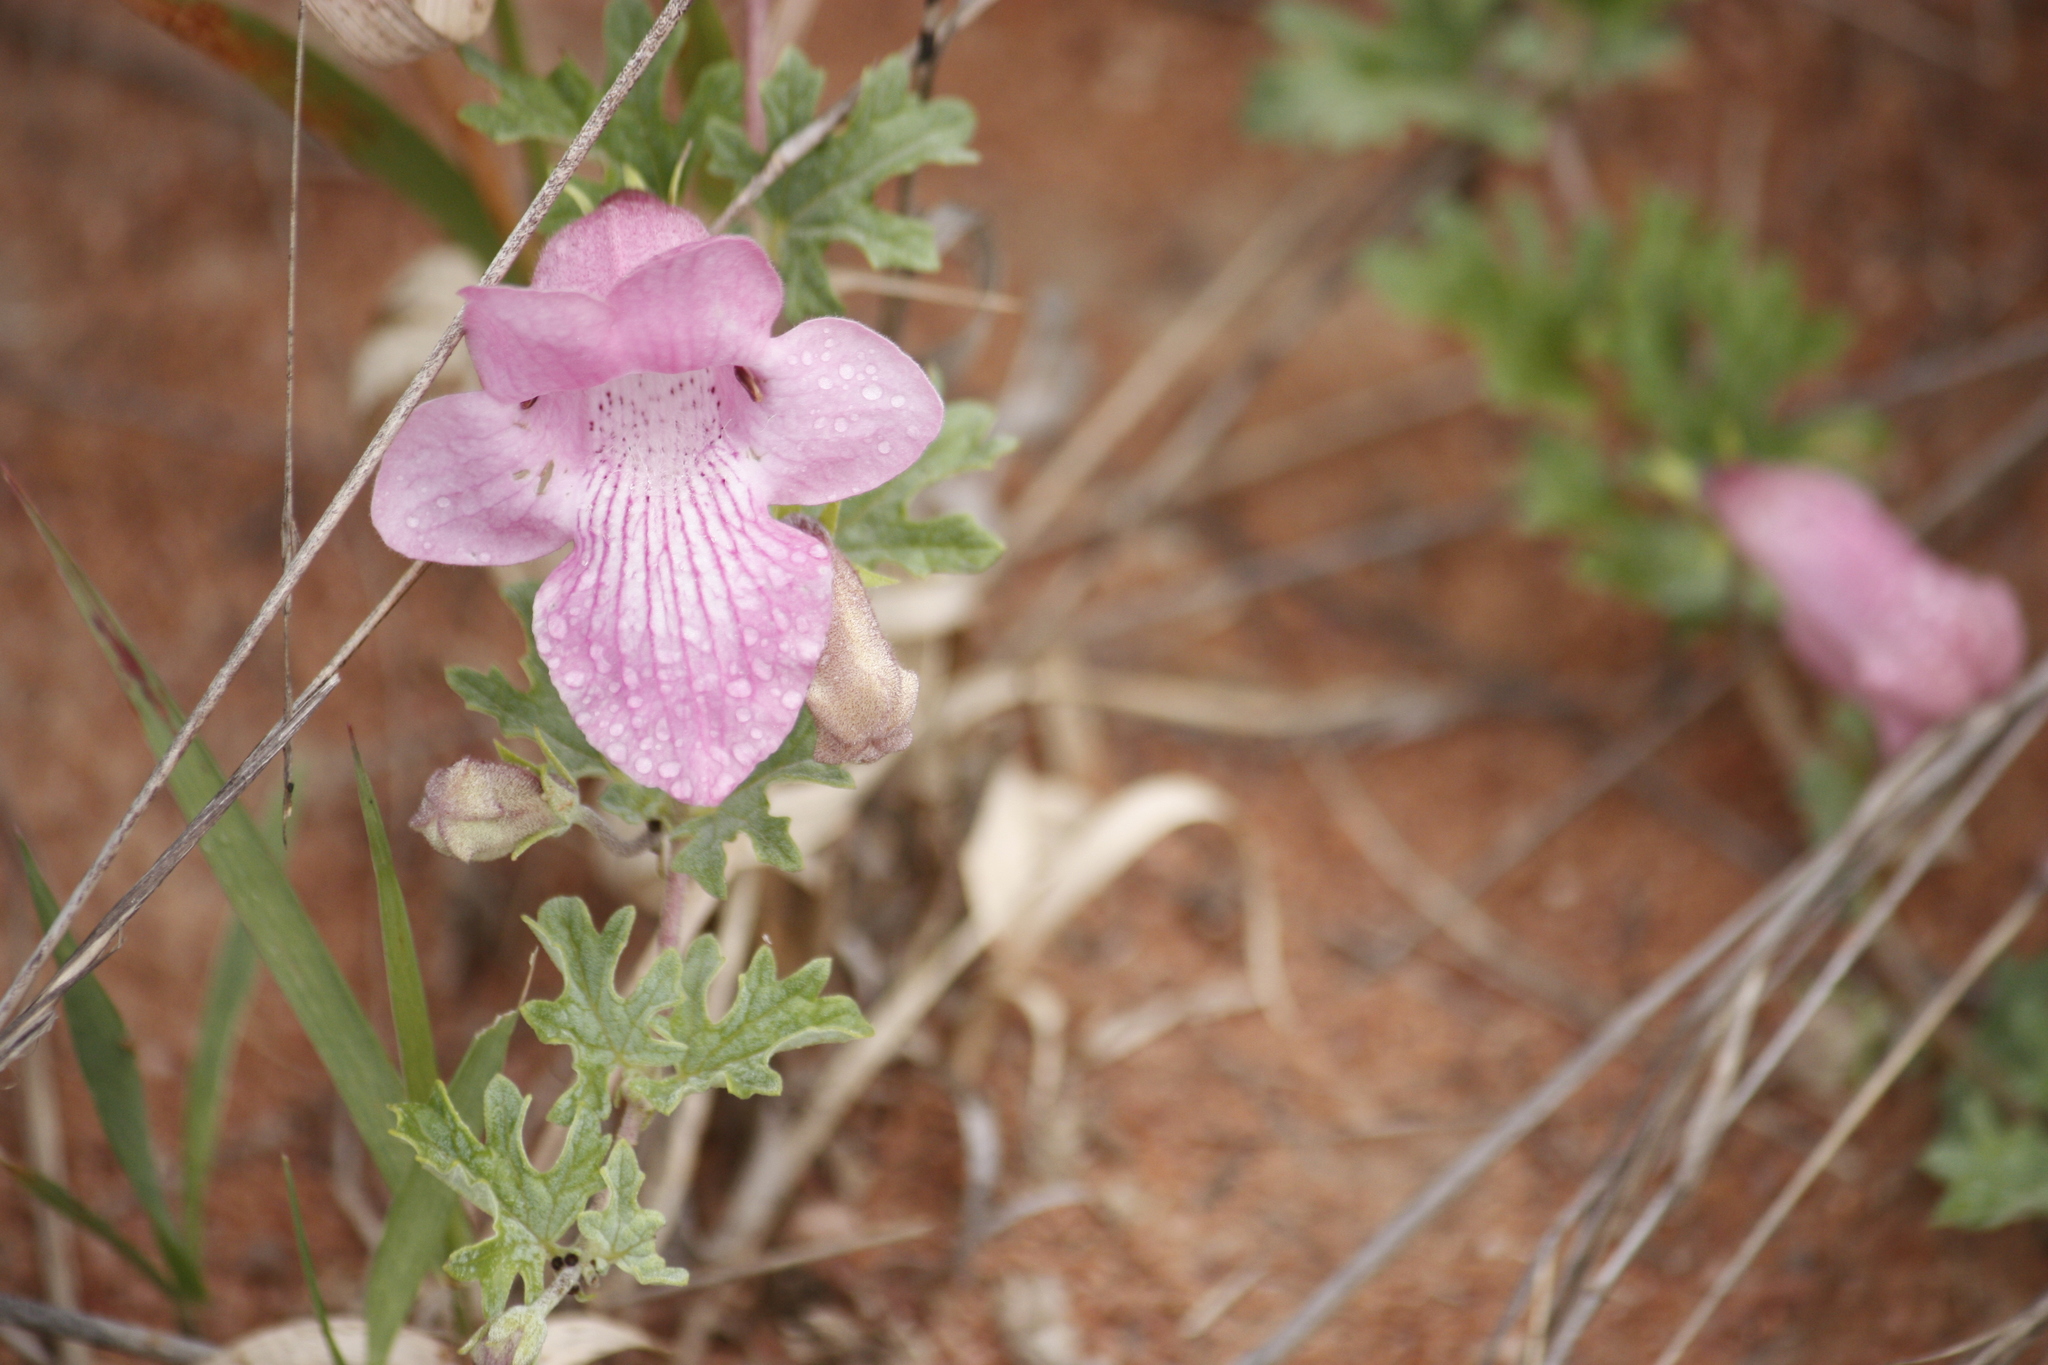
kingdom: Plantae
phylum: Tracheophyta
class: Magnoliopsida
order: Lamiales
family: Pedaliaceae
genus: Dicerocaryum
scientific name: Dicerocaryum senecioides
